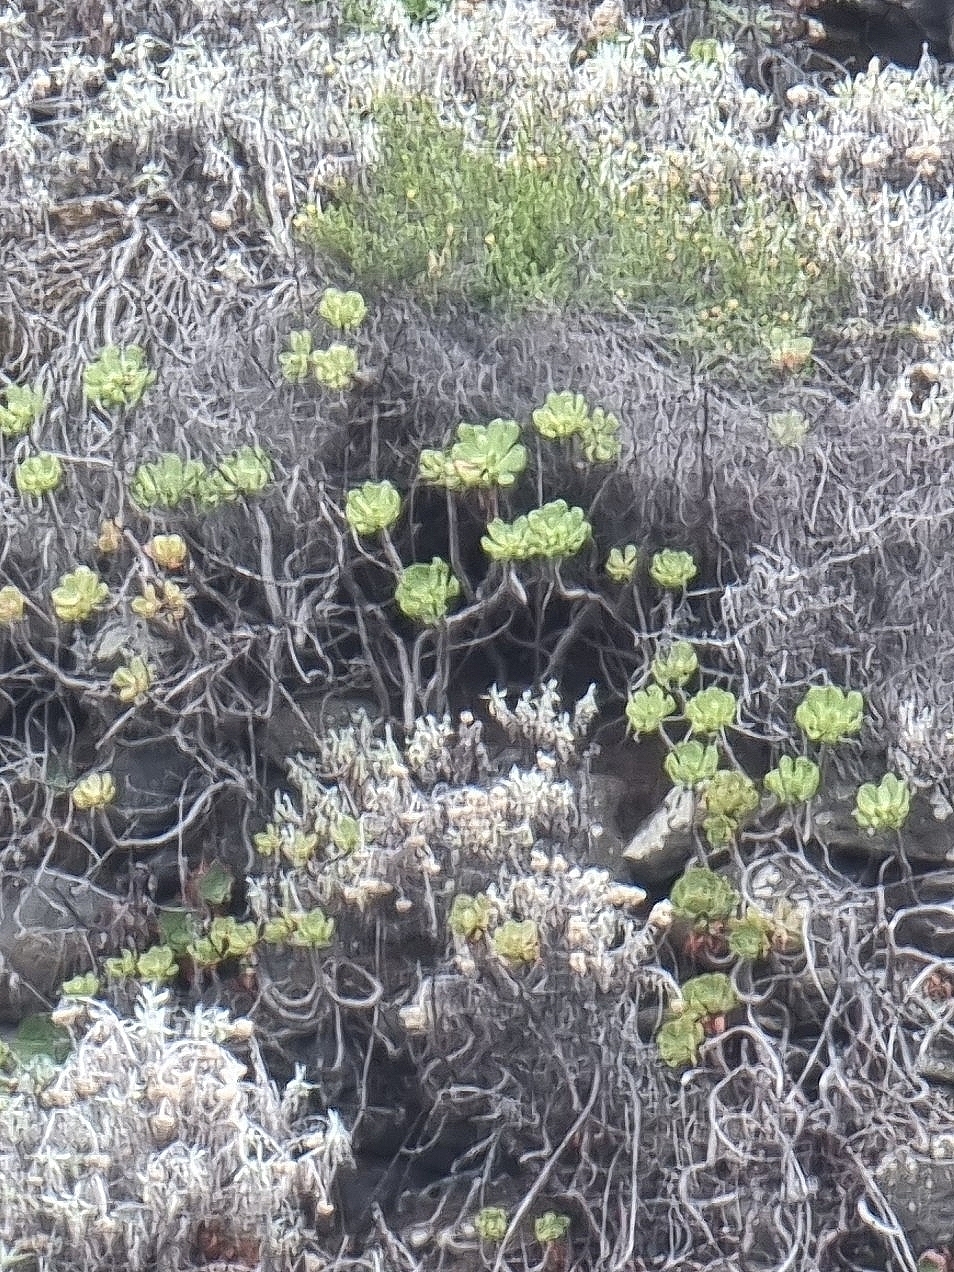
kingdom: Plantae
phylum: Tracheophyta
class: Magnoliopsida
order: Saxifragales
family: Crassulaceae
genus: Aeonium
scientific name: Aeonium glutinosum
